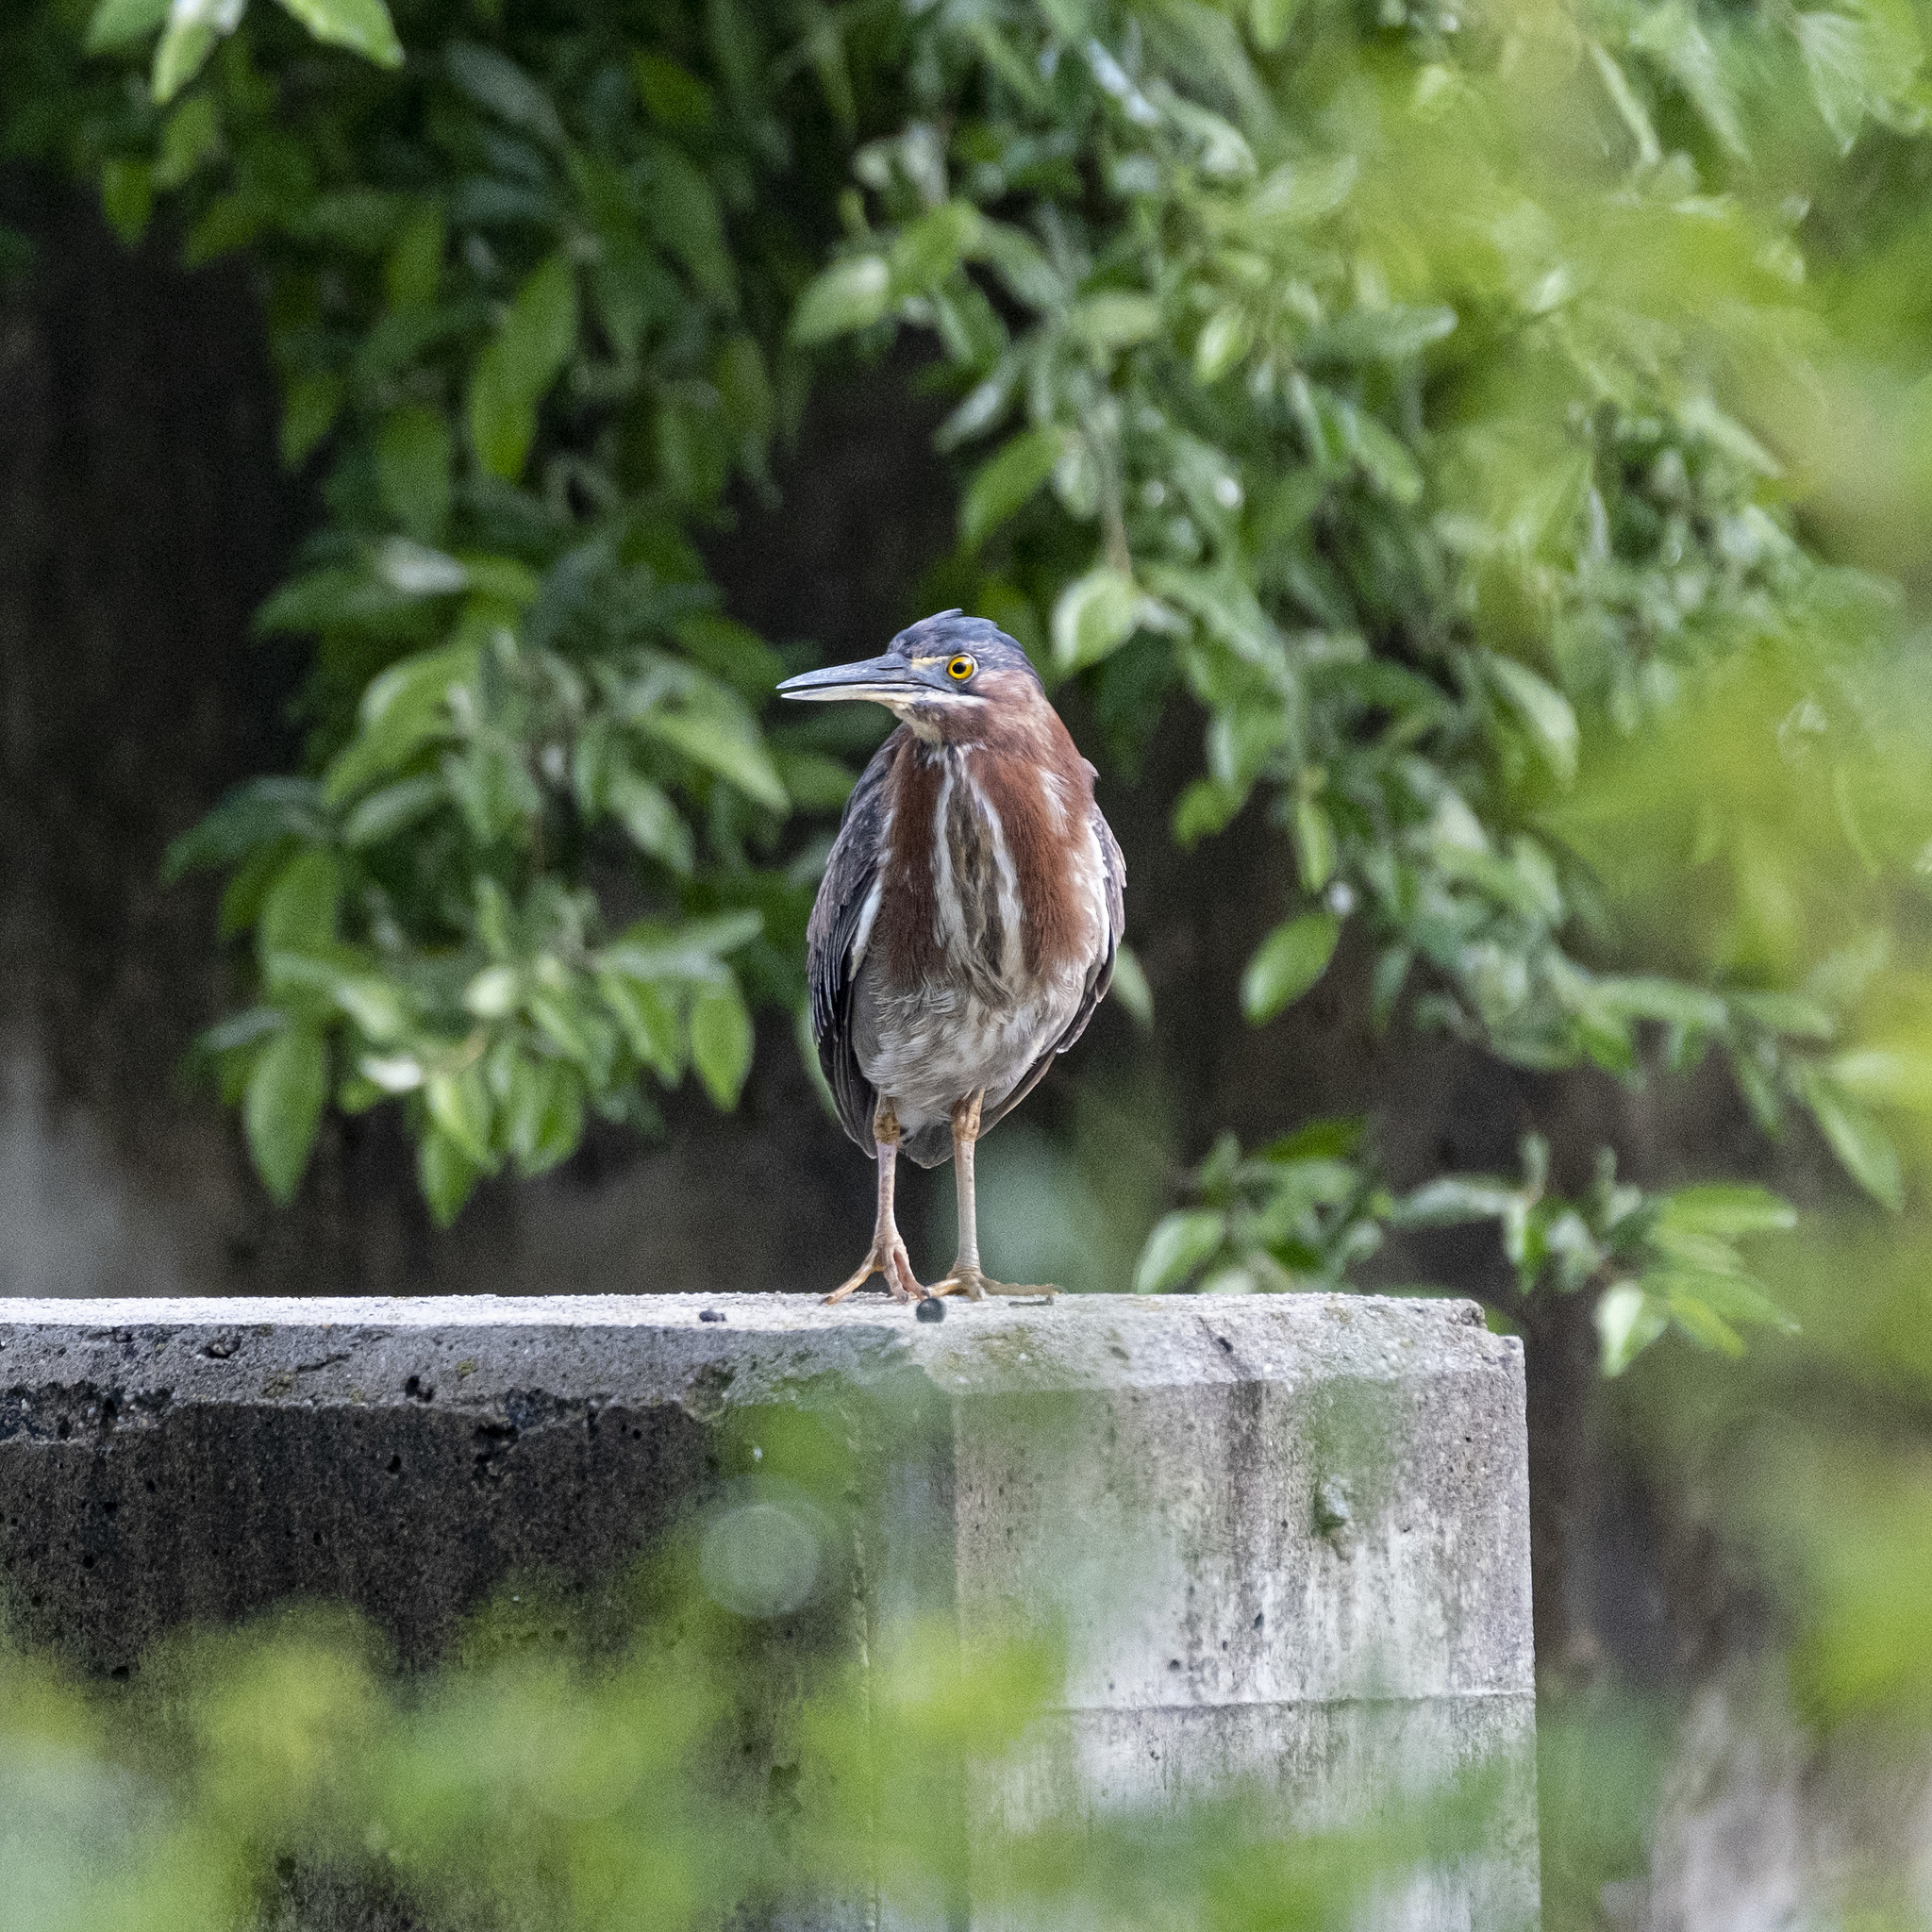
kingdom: Animalia
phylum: Chordata
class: Aves
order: Pelecaniformes
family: Ardeidae
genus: Butorides
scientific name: Butorides virescens
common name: Green heron
